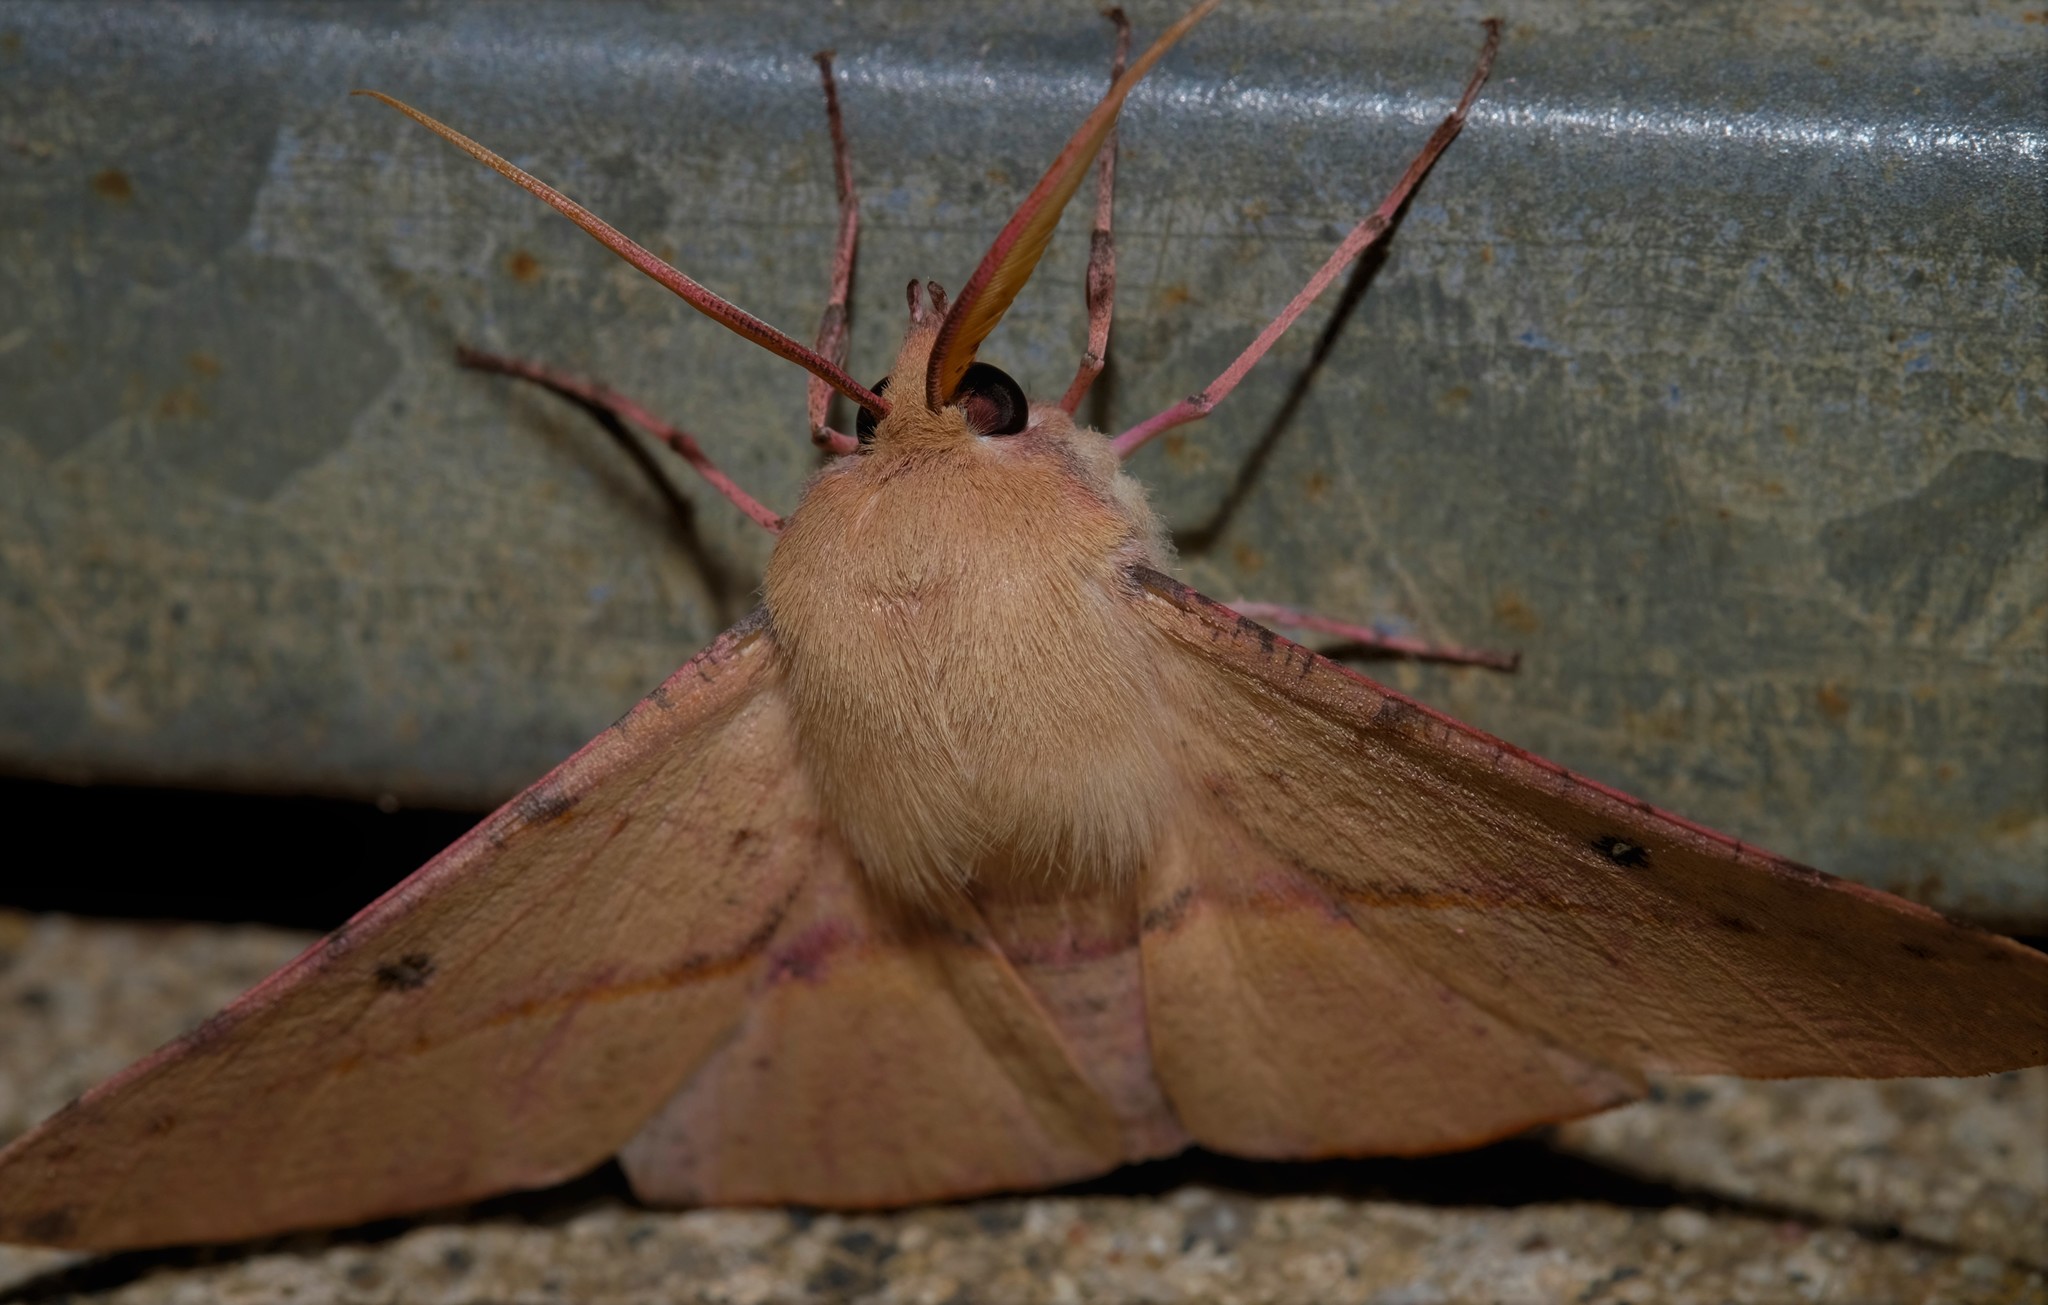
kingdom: Animalia
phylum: Arthropoda
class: Insecta
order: Lepidoptera
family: Geometridae
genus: Oenochroma
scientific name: Oenochroma vinaria
